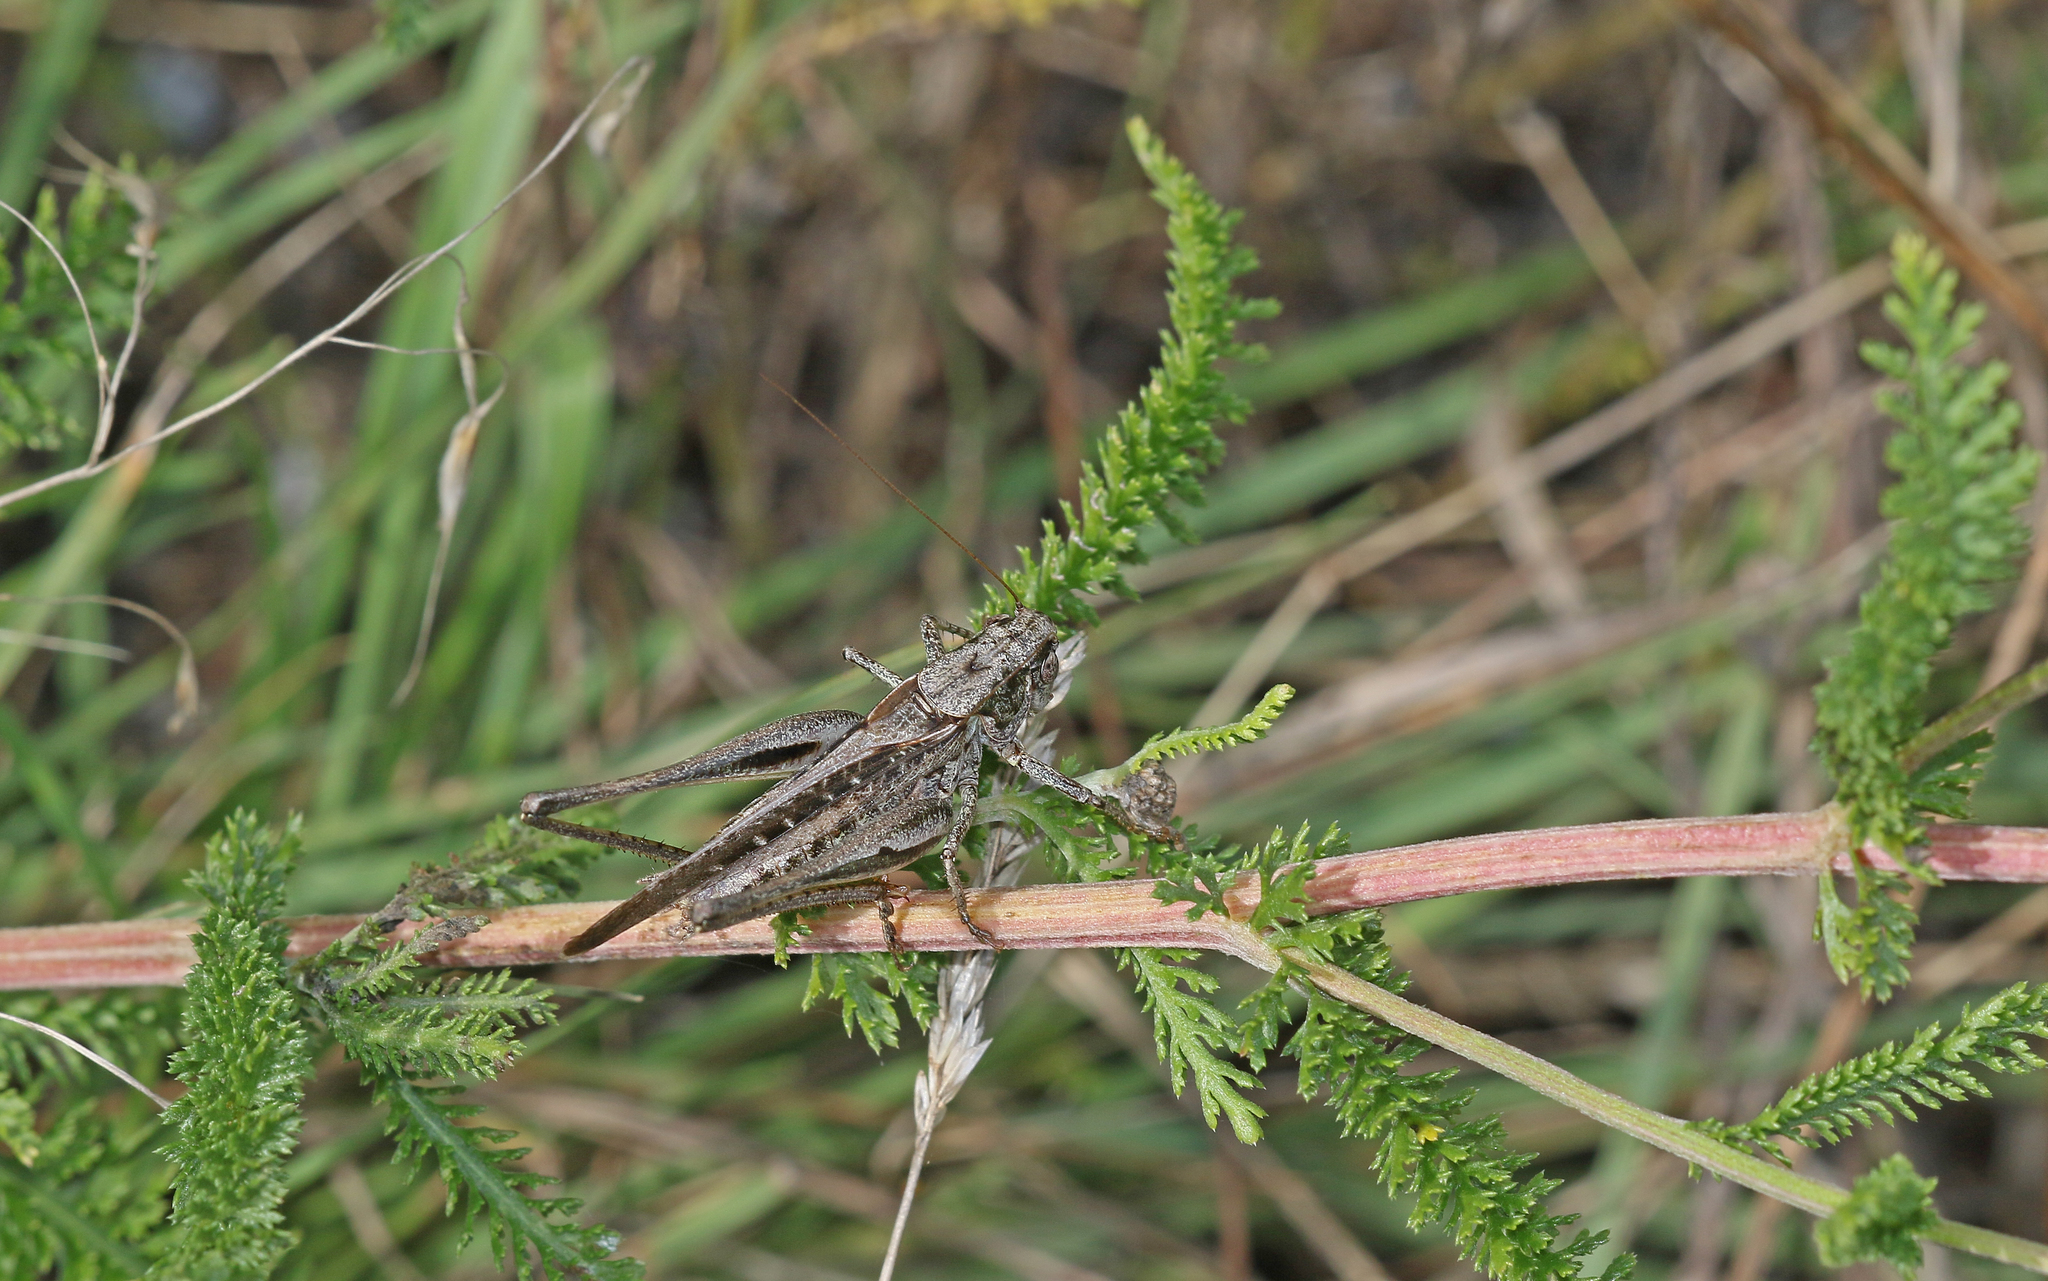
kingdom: Animalia
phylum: Arthropoda
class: Insecta
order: Orthoptera
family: Tettigoniidae
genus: Platycleis
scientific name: Platycleis grisea
